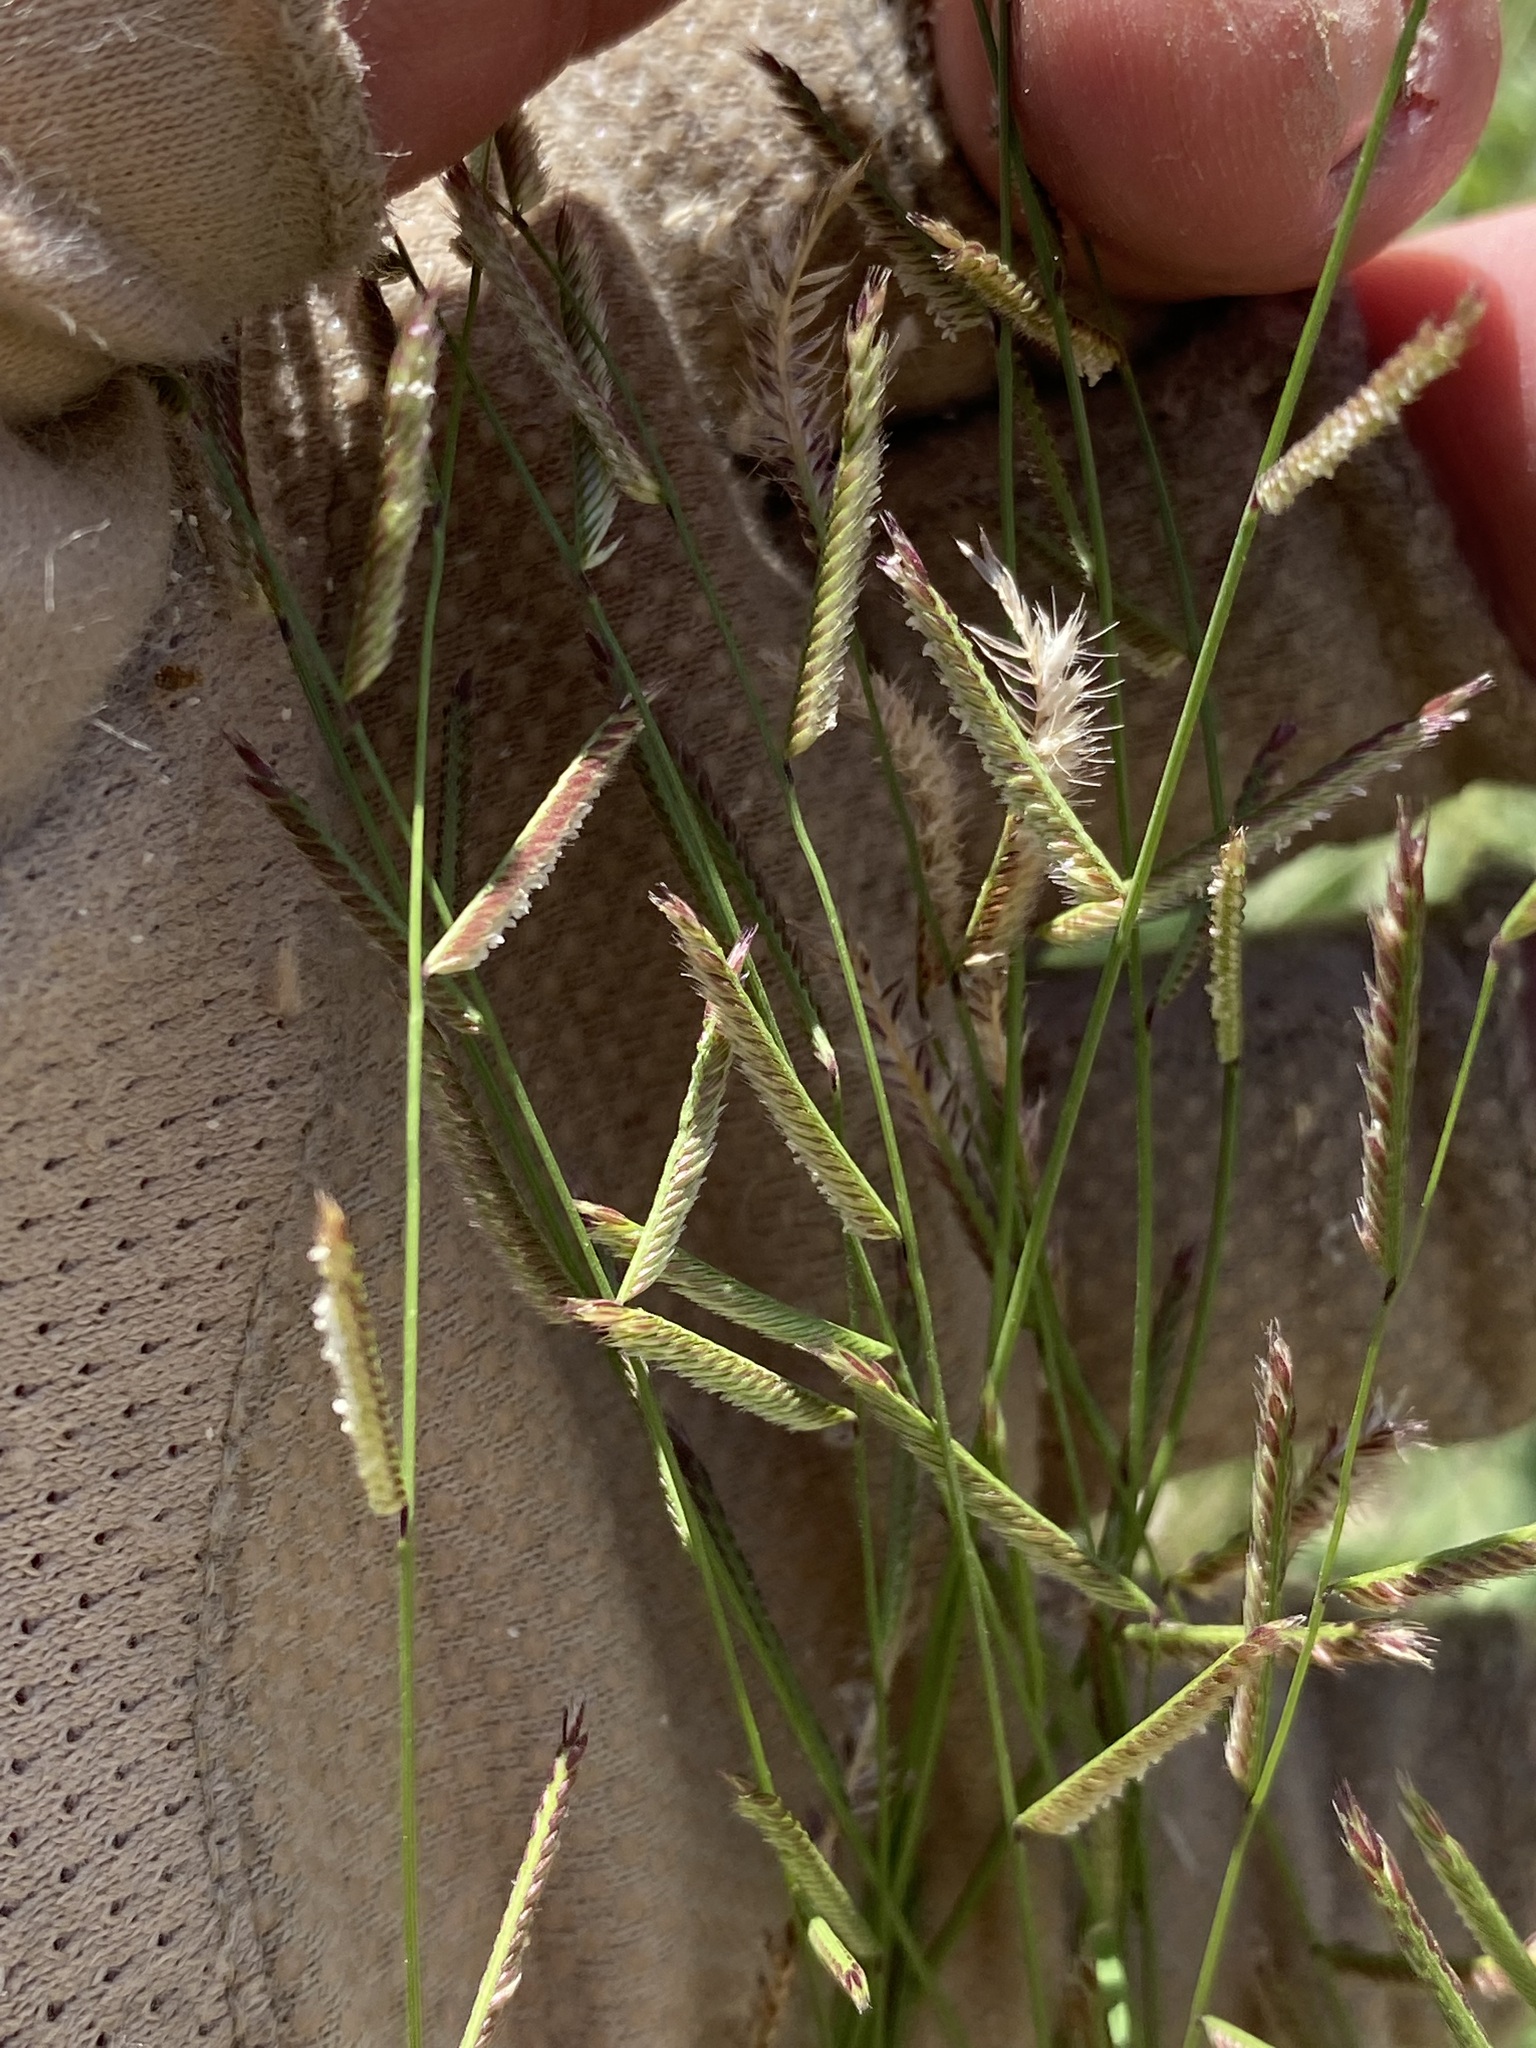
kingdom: Plantae
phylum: Tracheophyta
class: Liliopsida
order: Poales
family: Poaceae
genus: Bouteloua
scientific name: Bouteloua barbata
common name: Six-weeks grama
